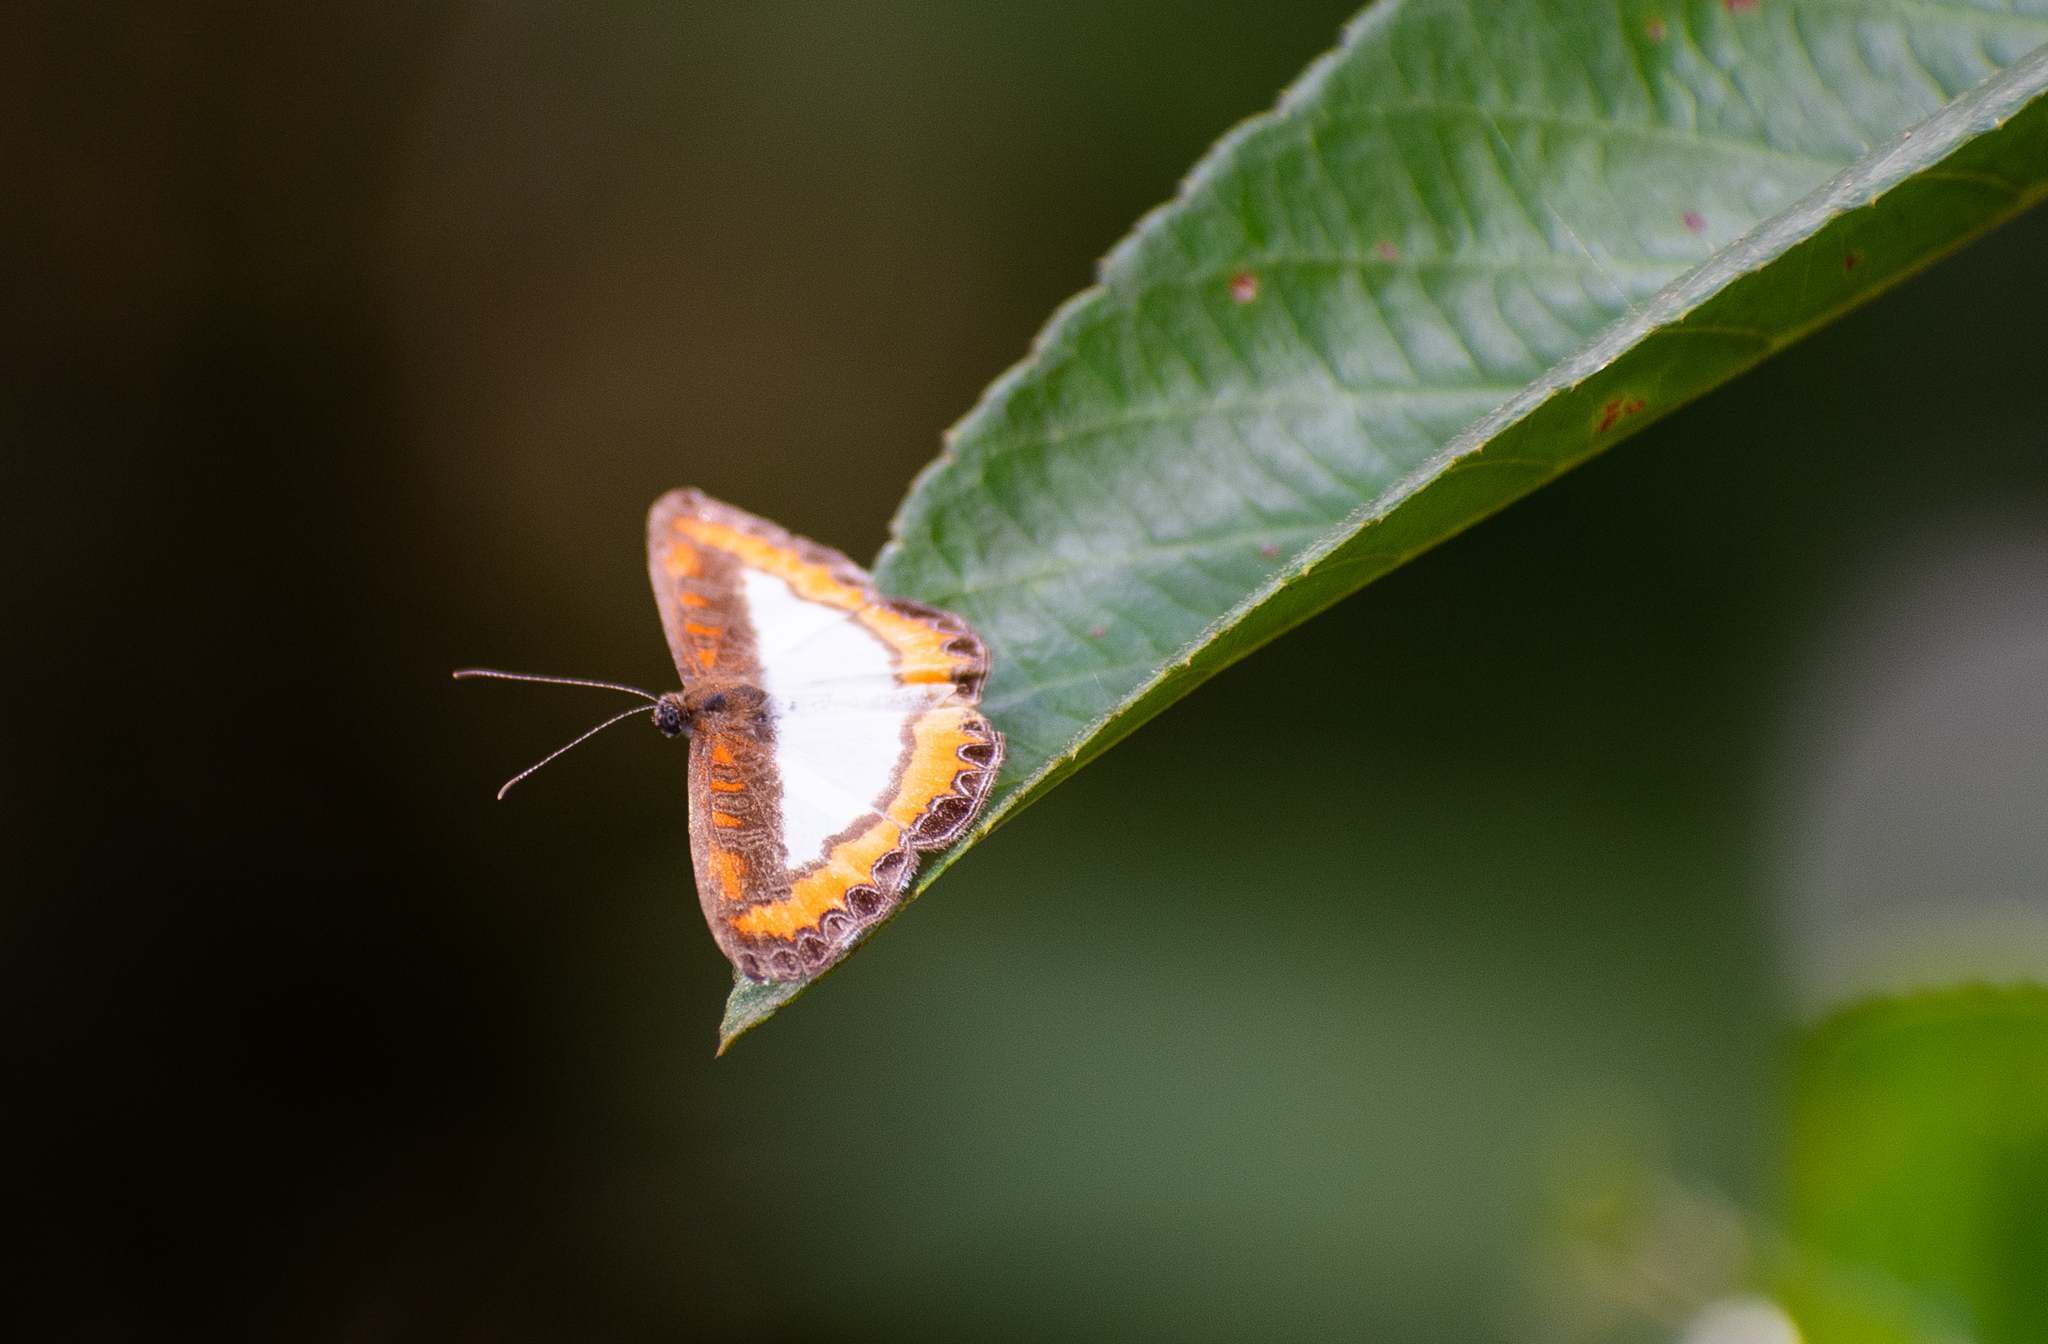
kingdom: Animalia
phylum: Arthropoda
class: Insecta
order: Lepidoptera
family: Riodinidae
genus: Nymula
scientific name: Nymula calyce
